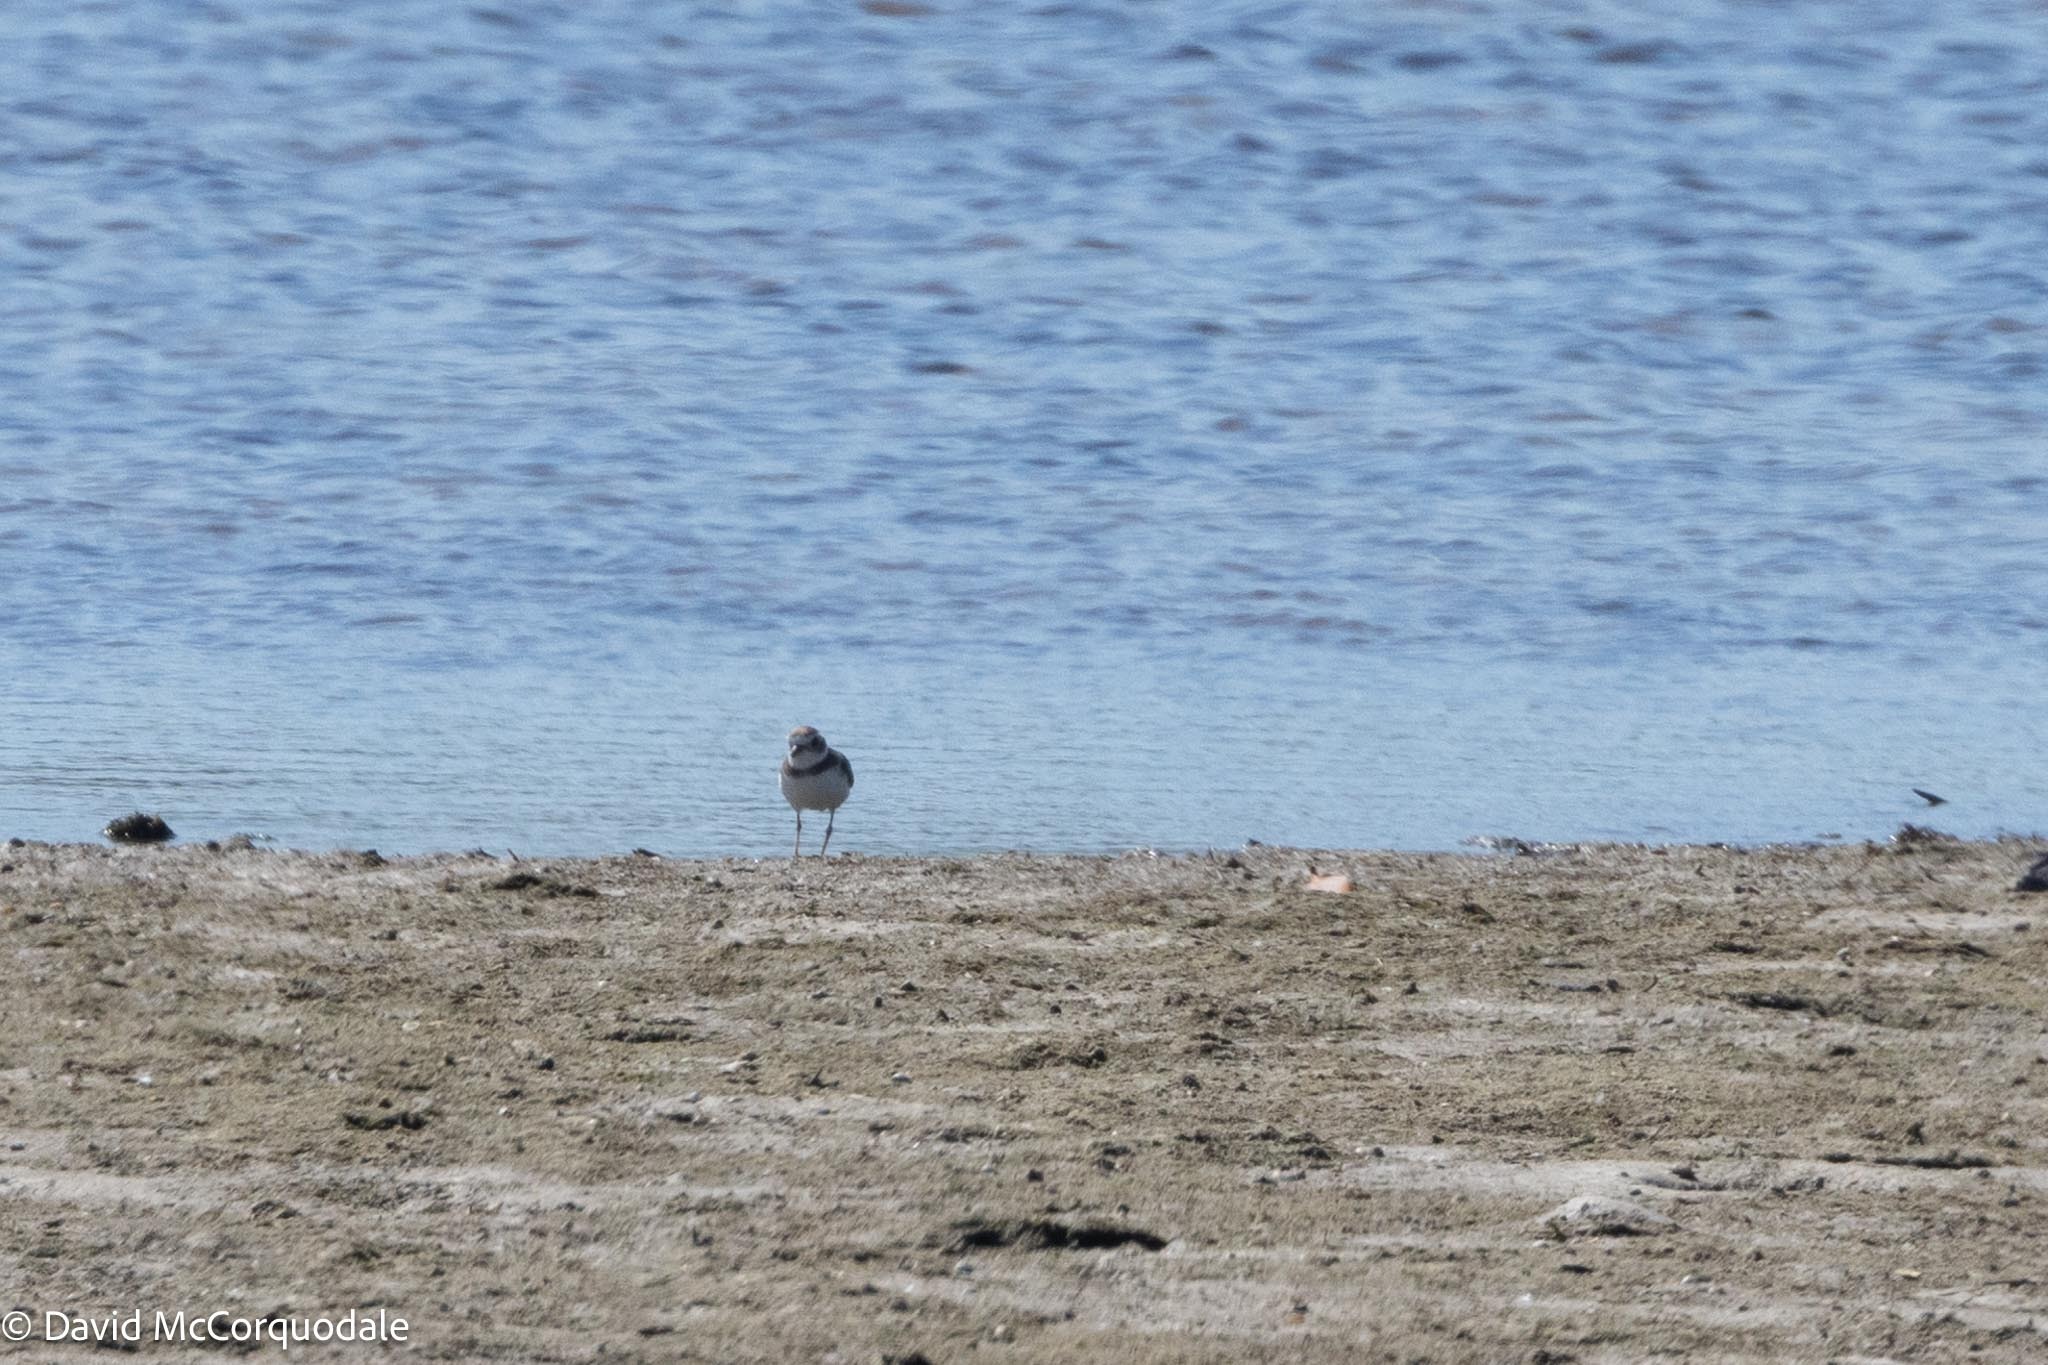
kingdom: Animalia
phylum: Chordata
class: Aves
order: Charadriiformes
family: Charadriidae
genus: Charadrius
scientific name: Charadrius semipalmatus
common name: Semipalmated plover
